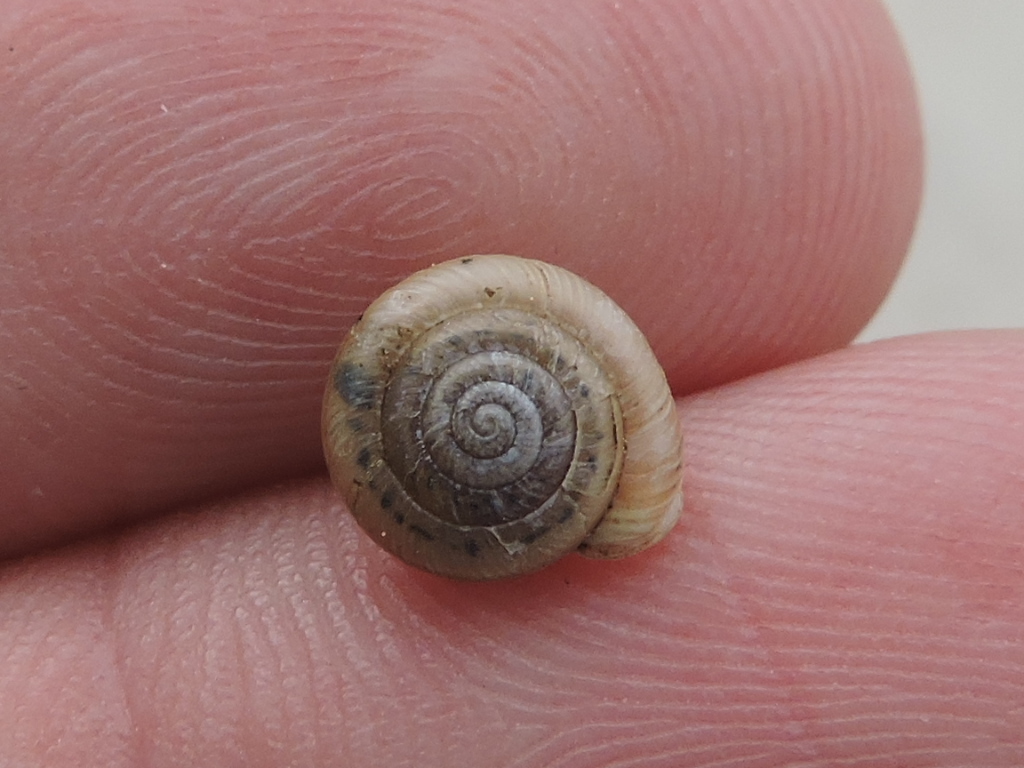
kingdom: Animalia
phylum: Mollusca
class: Gastropoda
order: Stylommatophora
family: Polygyridae
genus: Linisa
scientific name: Linisa texasiana
